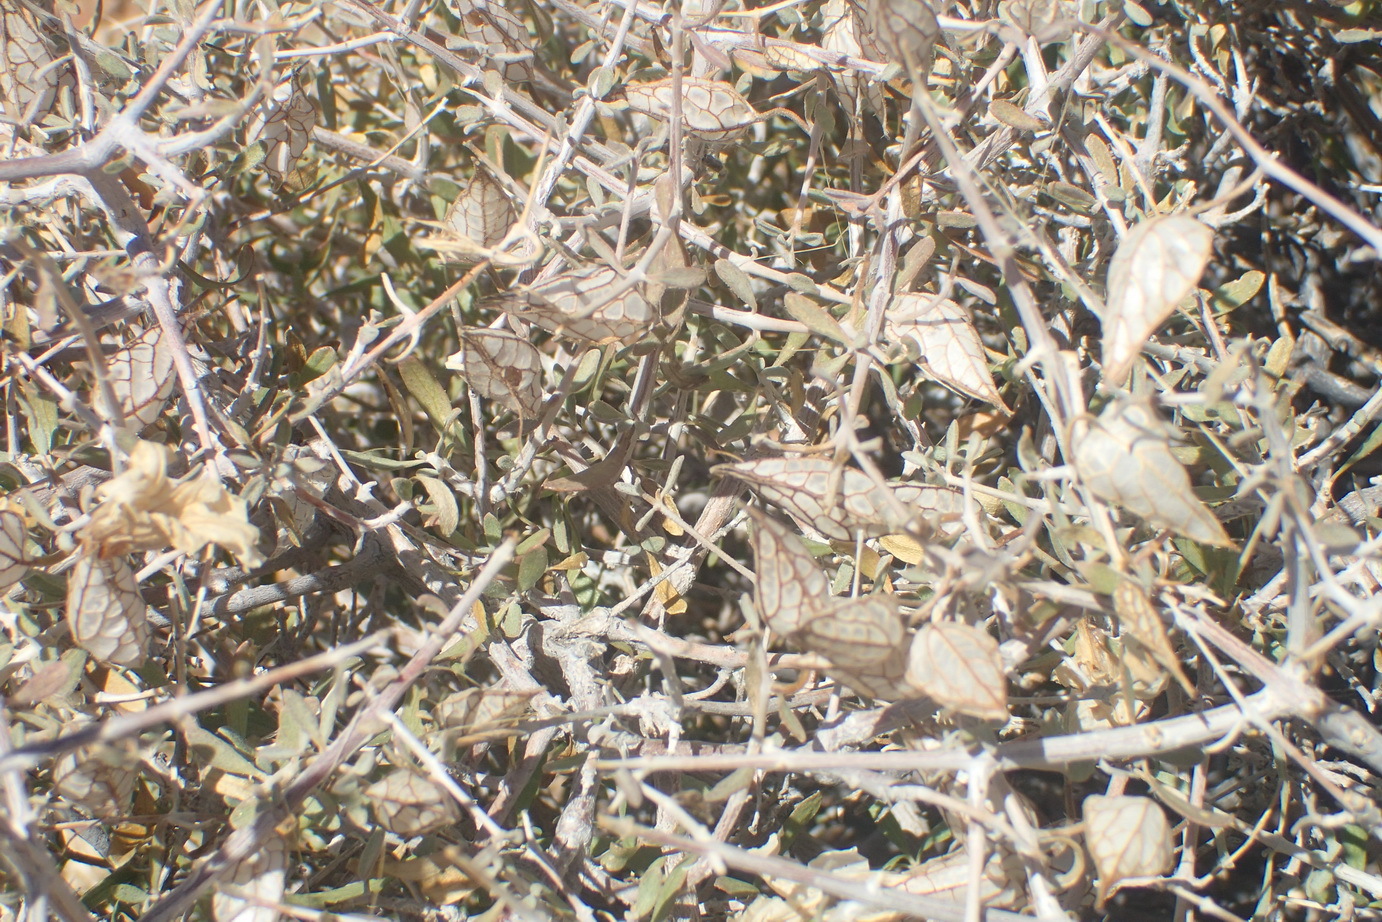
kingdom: Plantae
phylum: Tracheophyta
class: Magnoliopsida
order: Lamiales
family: Acanthaceae
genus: Petalidium
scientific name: Petalidium lucens
